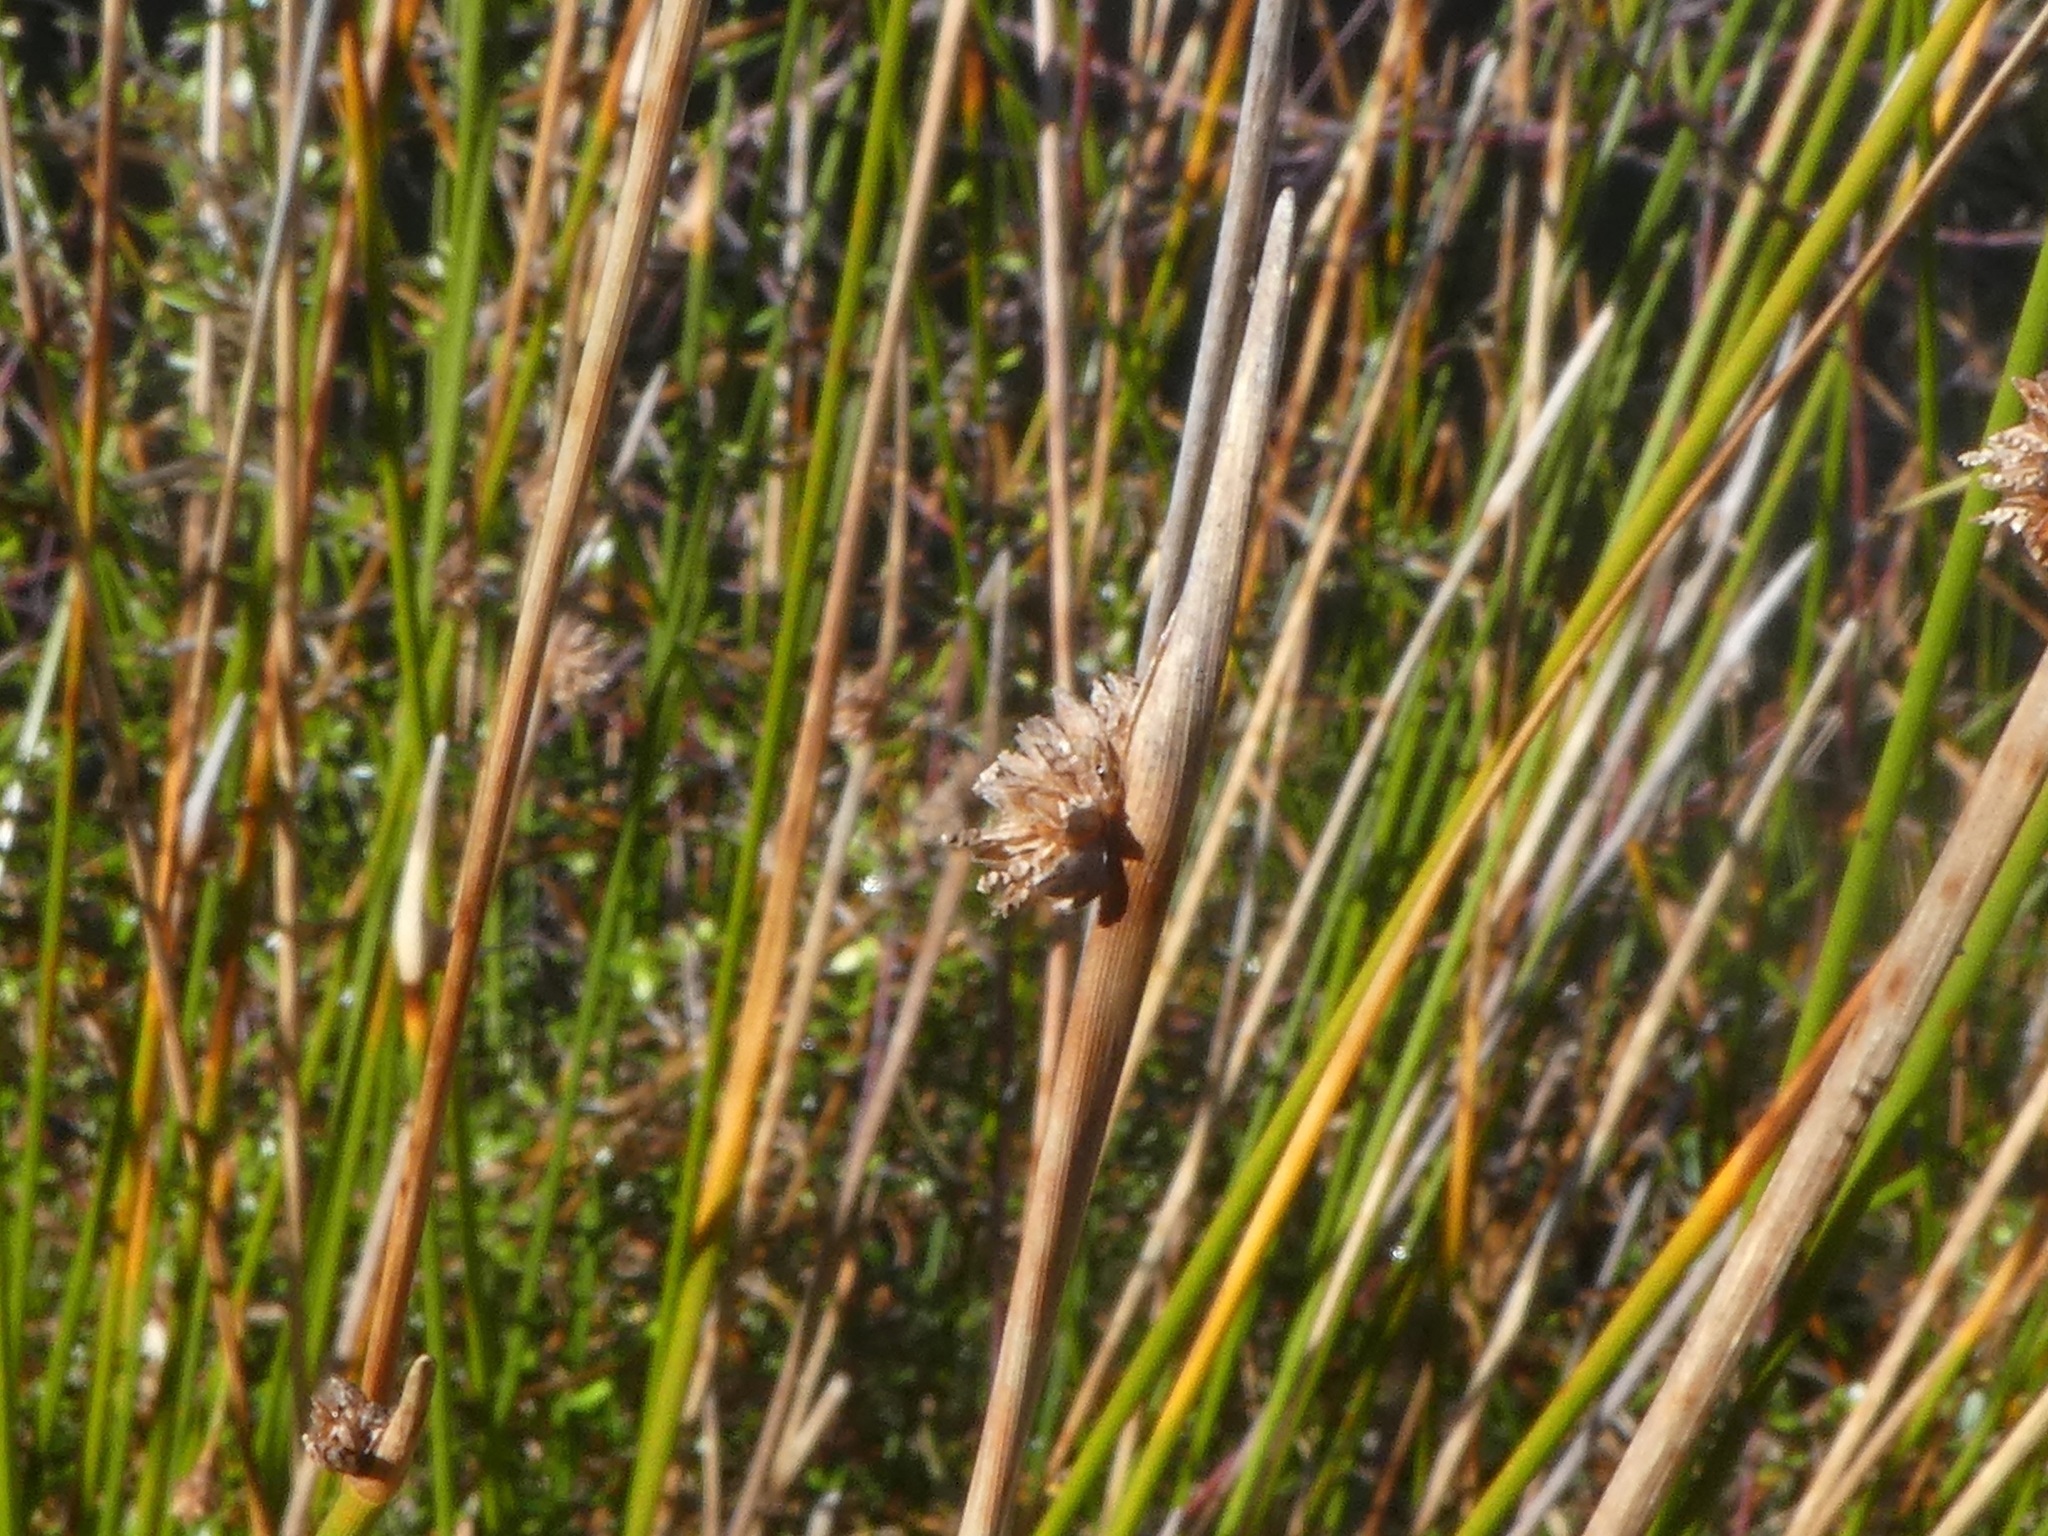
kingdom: Plantae
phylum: Tracheophyta
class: Liliopsida
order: Poales
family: Cyperaceae
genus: Ficinia
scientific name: Ficinia nodosa
